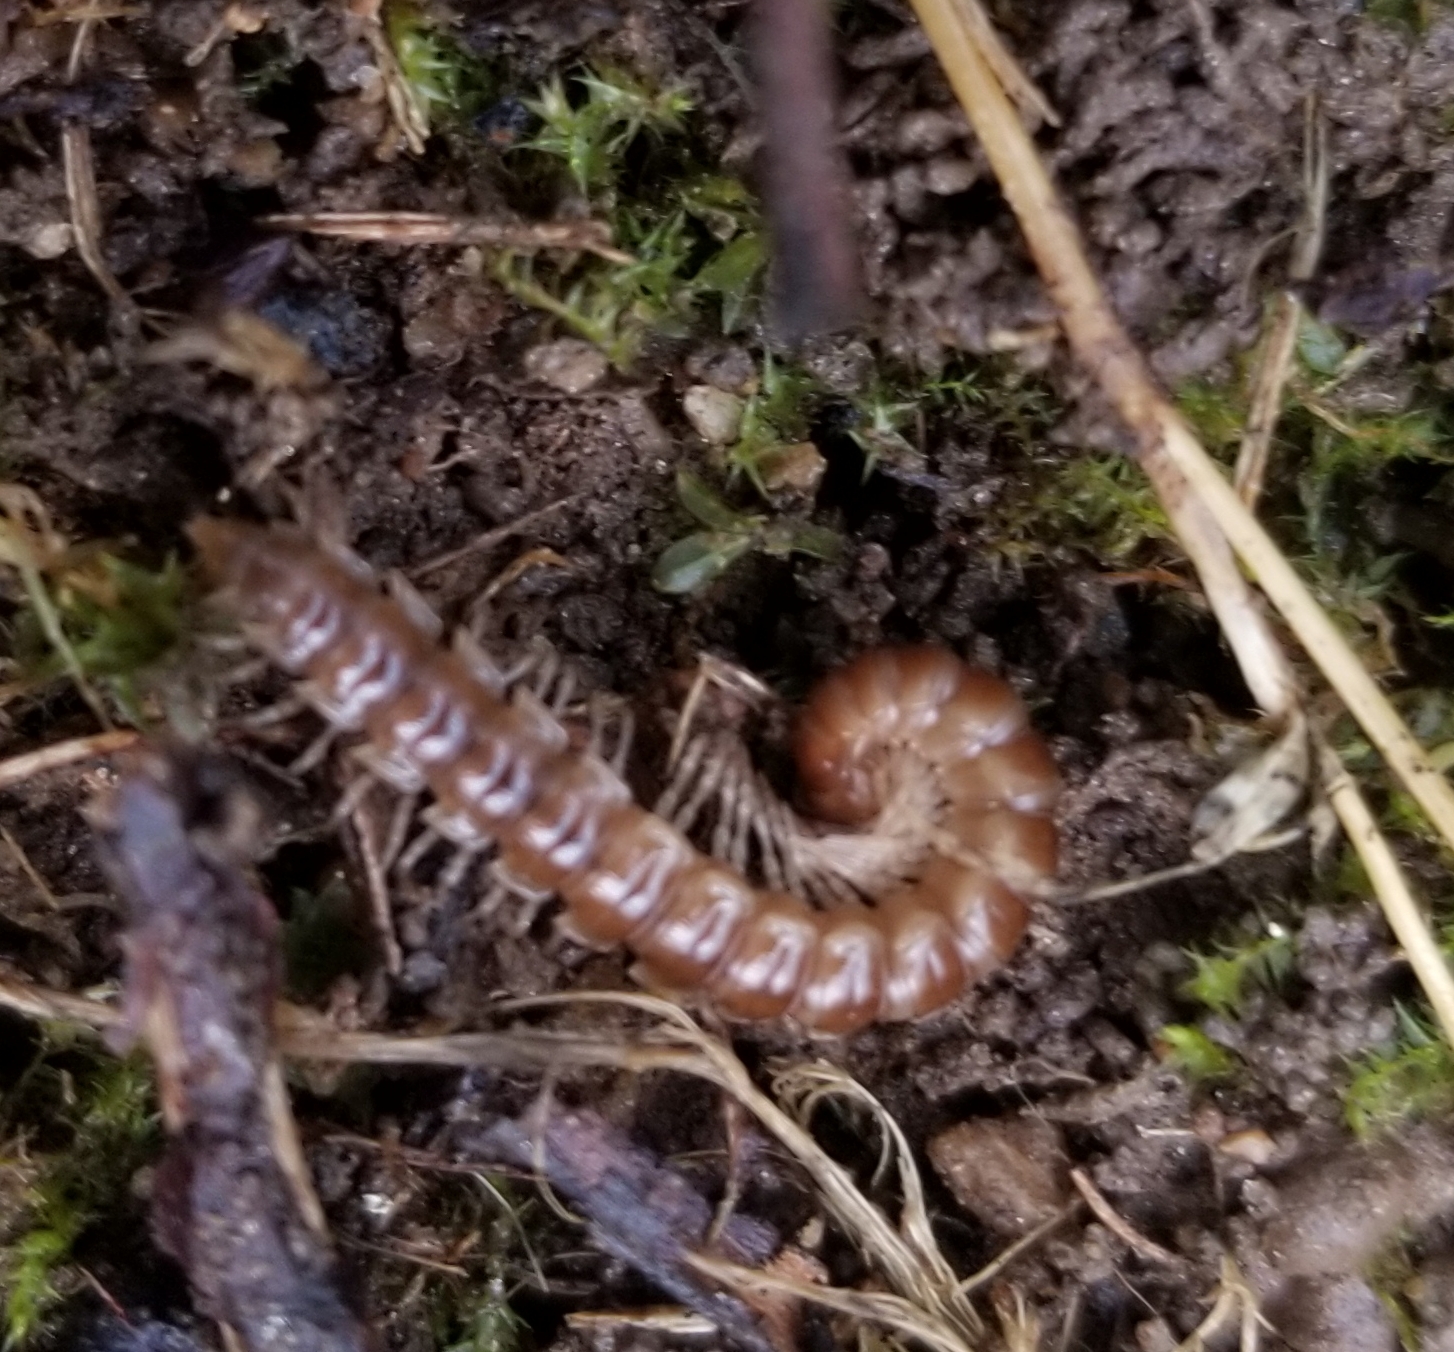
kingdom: Animalia
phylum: Arthropoda
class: Diplopoda
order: Polydesmida
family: Paradoxosomatidae
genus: Oxidus
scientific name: Oxidus gracilis
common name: Greenhouse millipede
